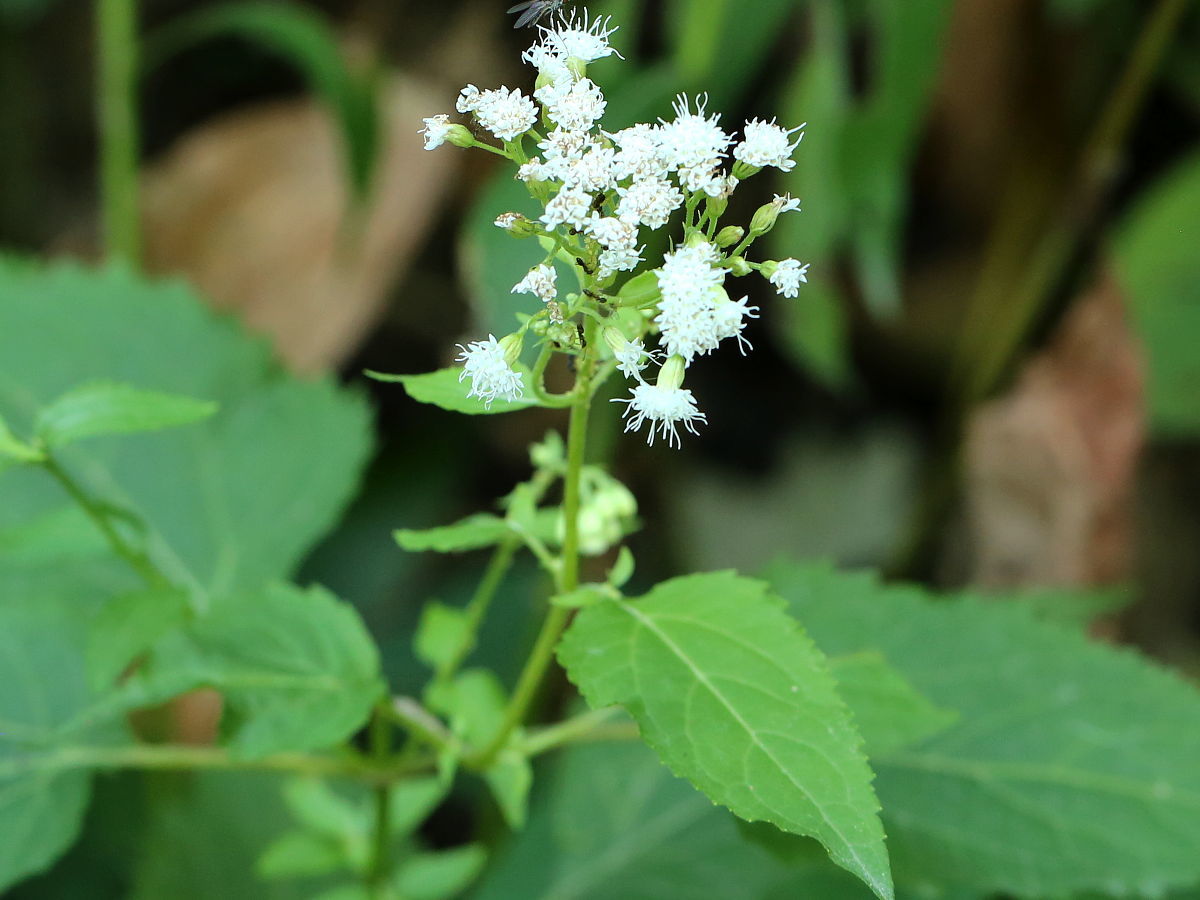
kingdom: Plantae
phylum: Tracheophyta
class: Magnoliopsida
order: Asterales
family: Asteraceae
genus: Ageratina
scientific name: Ageratina altissima
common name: White snakeroot
